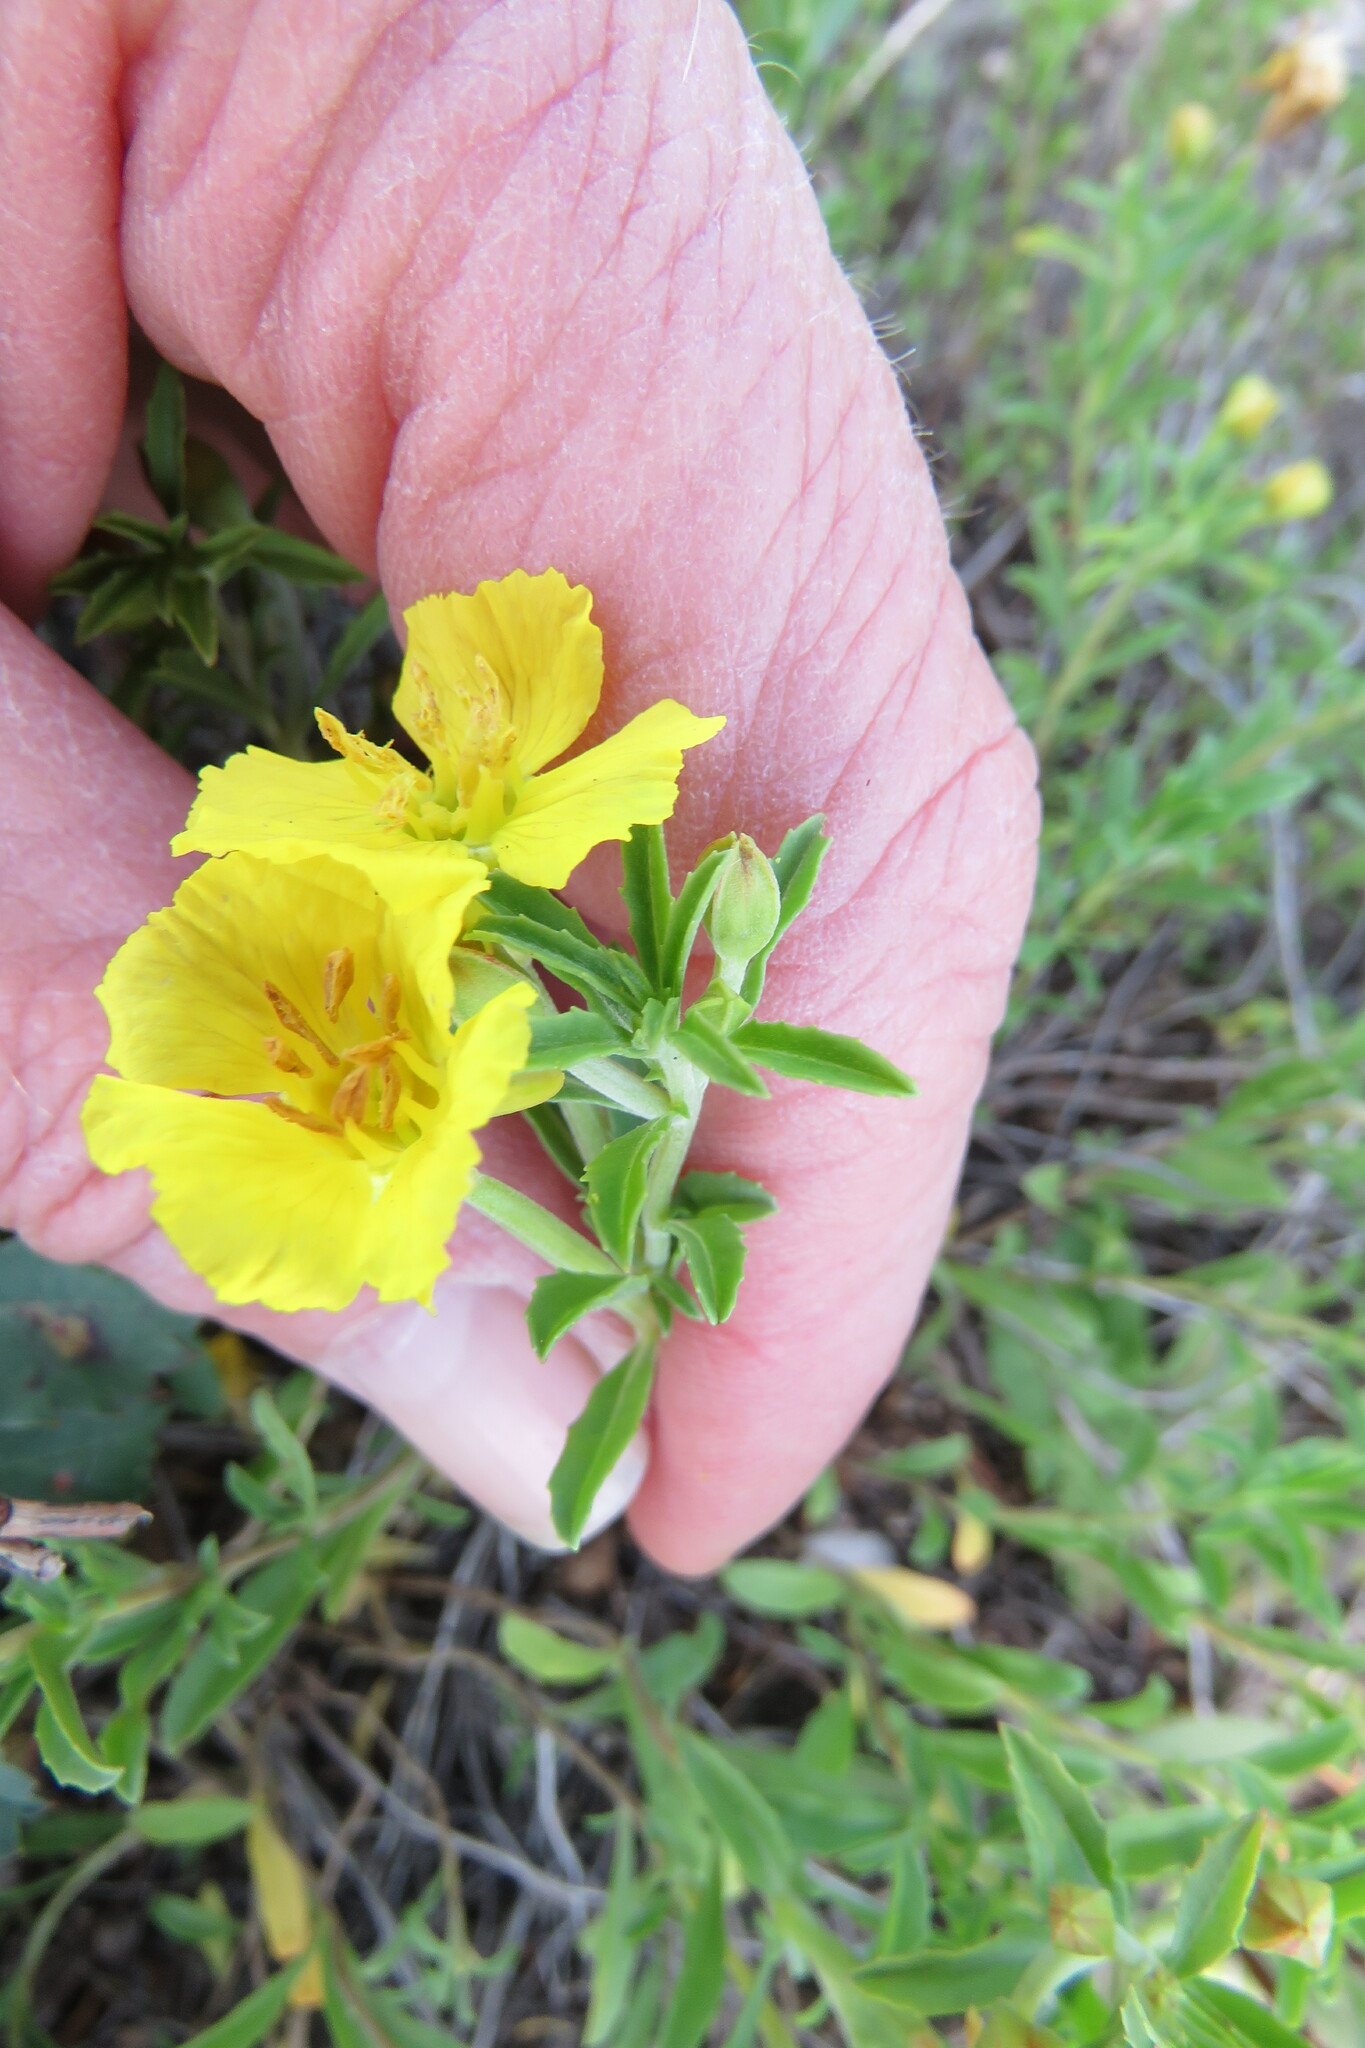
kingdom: Plantae
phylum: Tracheophyta
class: Magnoliopsida
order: Myrtales
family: Onagraceae
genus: Oenothera
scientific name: Oenothera serrulata
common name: Half-shrub calylophus
